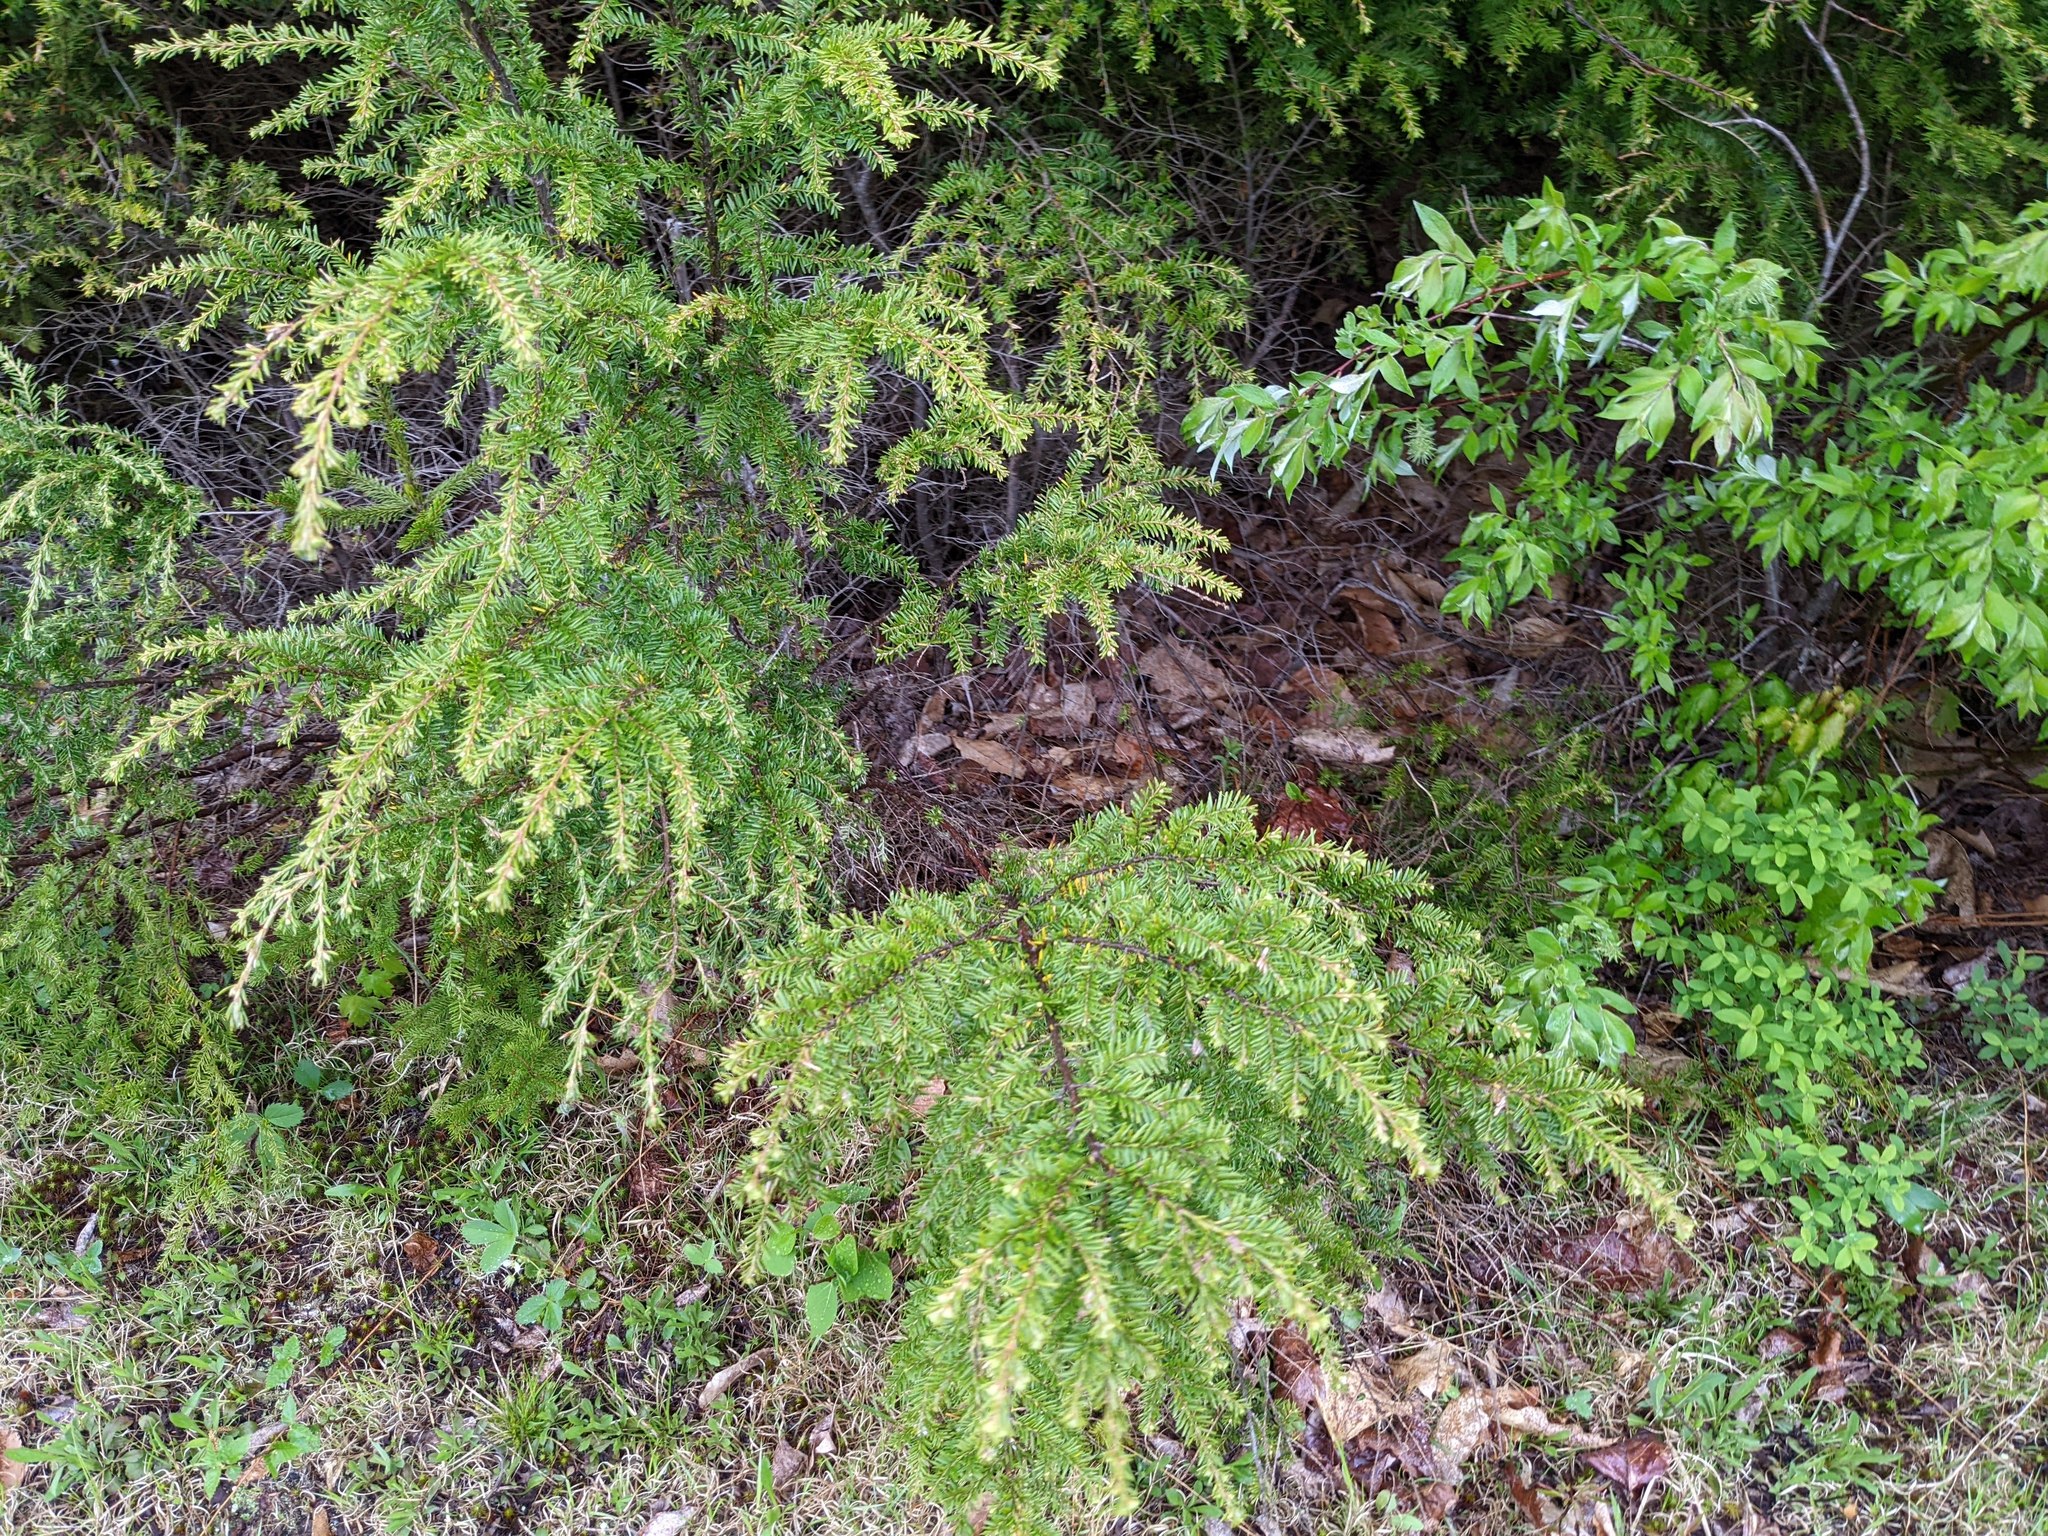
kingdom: Plantae
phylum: Tracheophyta
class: Pinopsida
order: Pinales
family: Pinaceae
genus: Tsuga
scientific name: Tsuga canadensis
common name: Eastern hemlock
